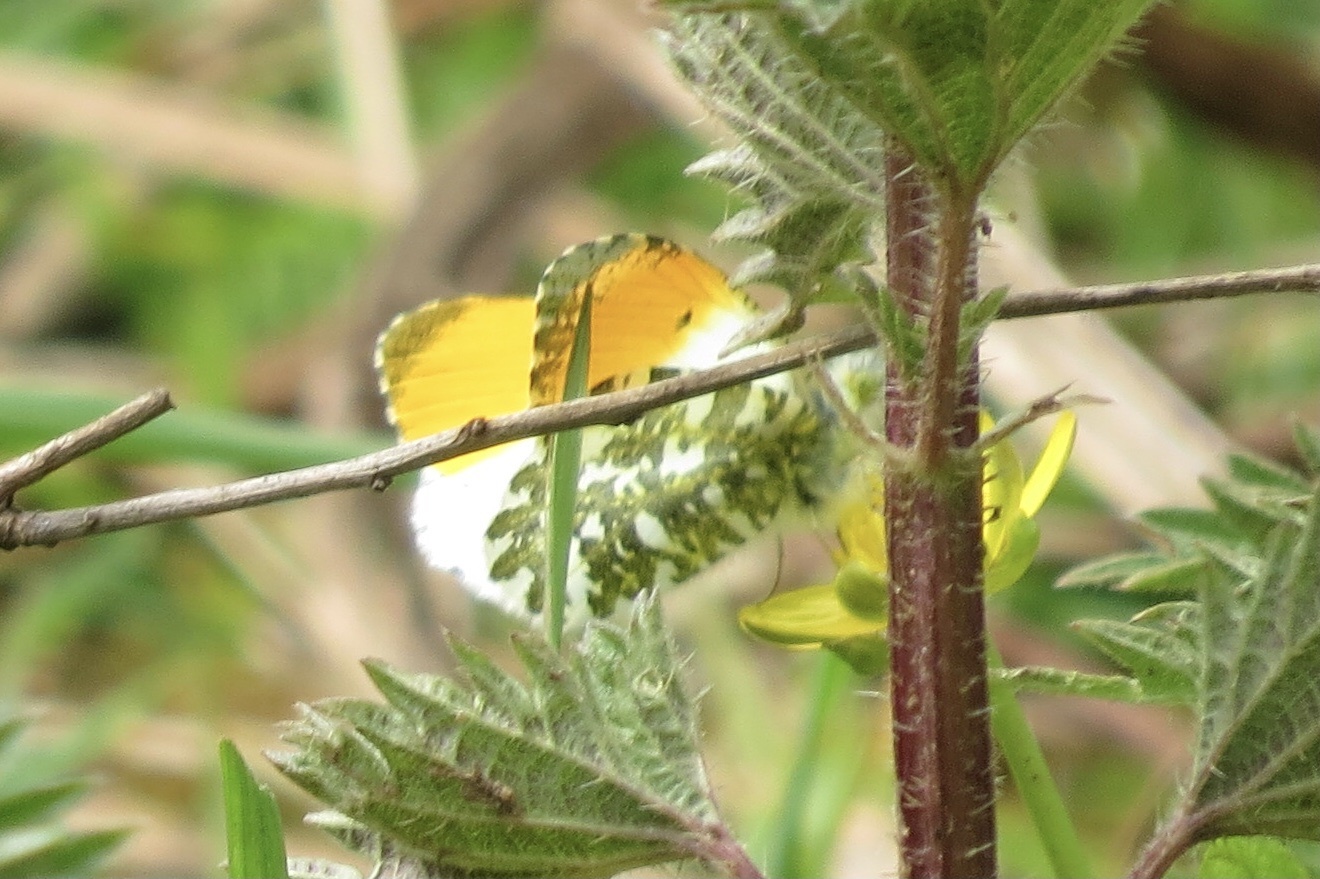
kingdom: Animalia
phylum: Arthropoda
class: Insecta
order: Lepidoptera
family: Pieridae
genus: Anthocharis
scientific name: Anthocharis cardamines
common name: Orange-tip
